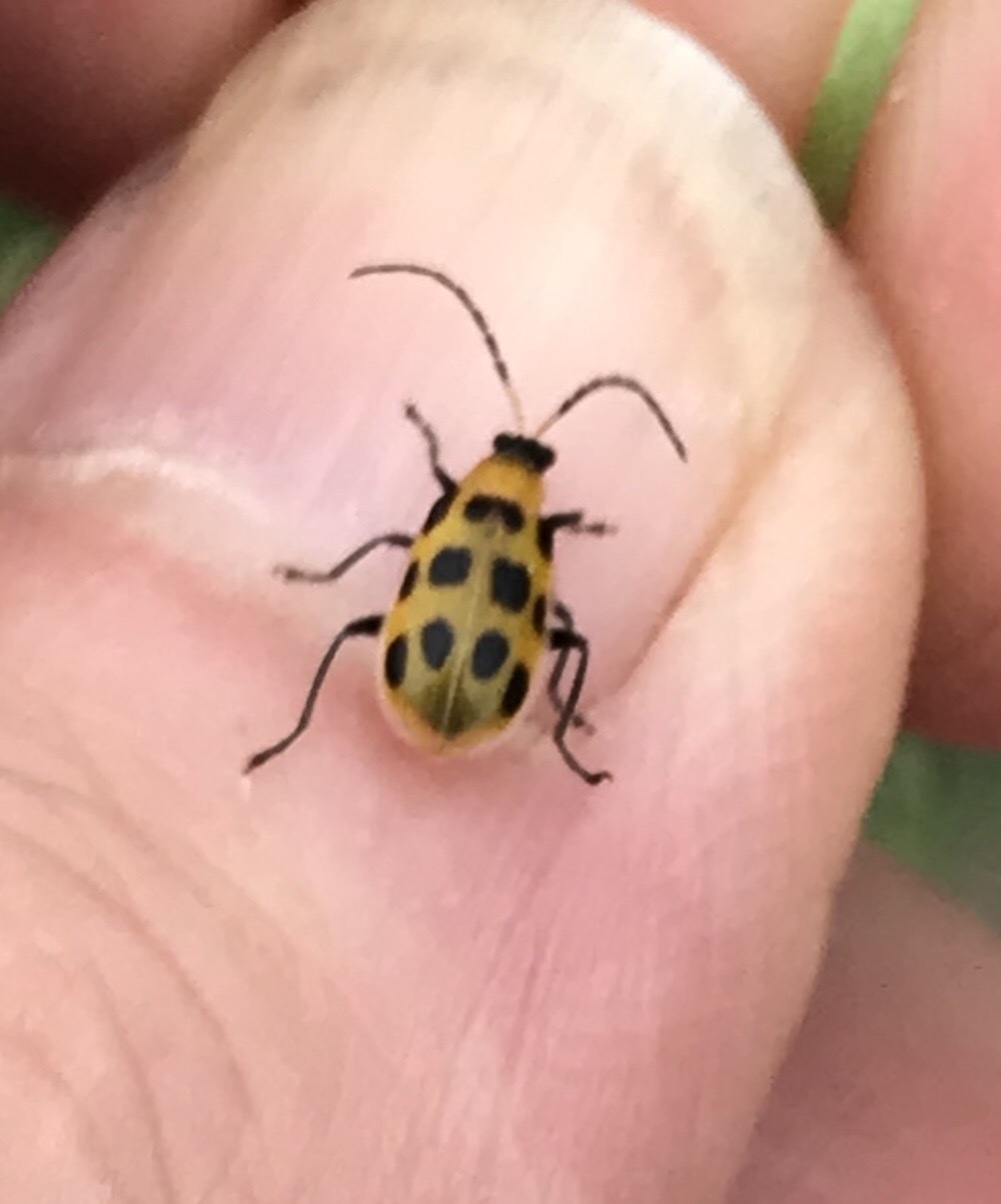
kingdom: Animalia
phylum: Arthropoda
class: Insecta
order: Coleoptera
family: Chrysomelidae
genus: Diabrotica
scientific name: Diabrotica undecimpunctata
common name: Spotted cucumber beetle
